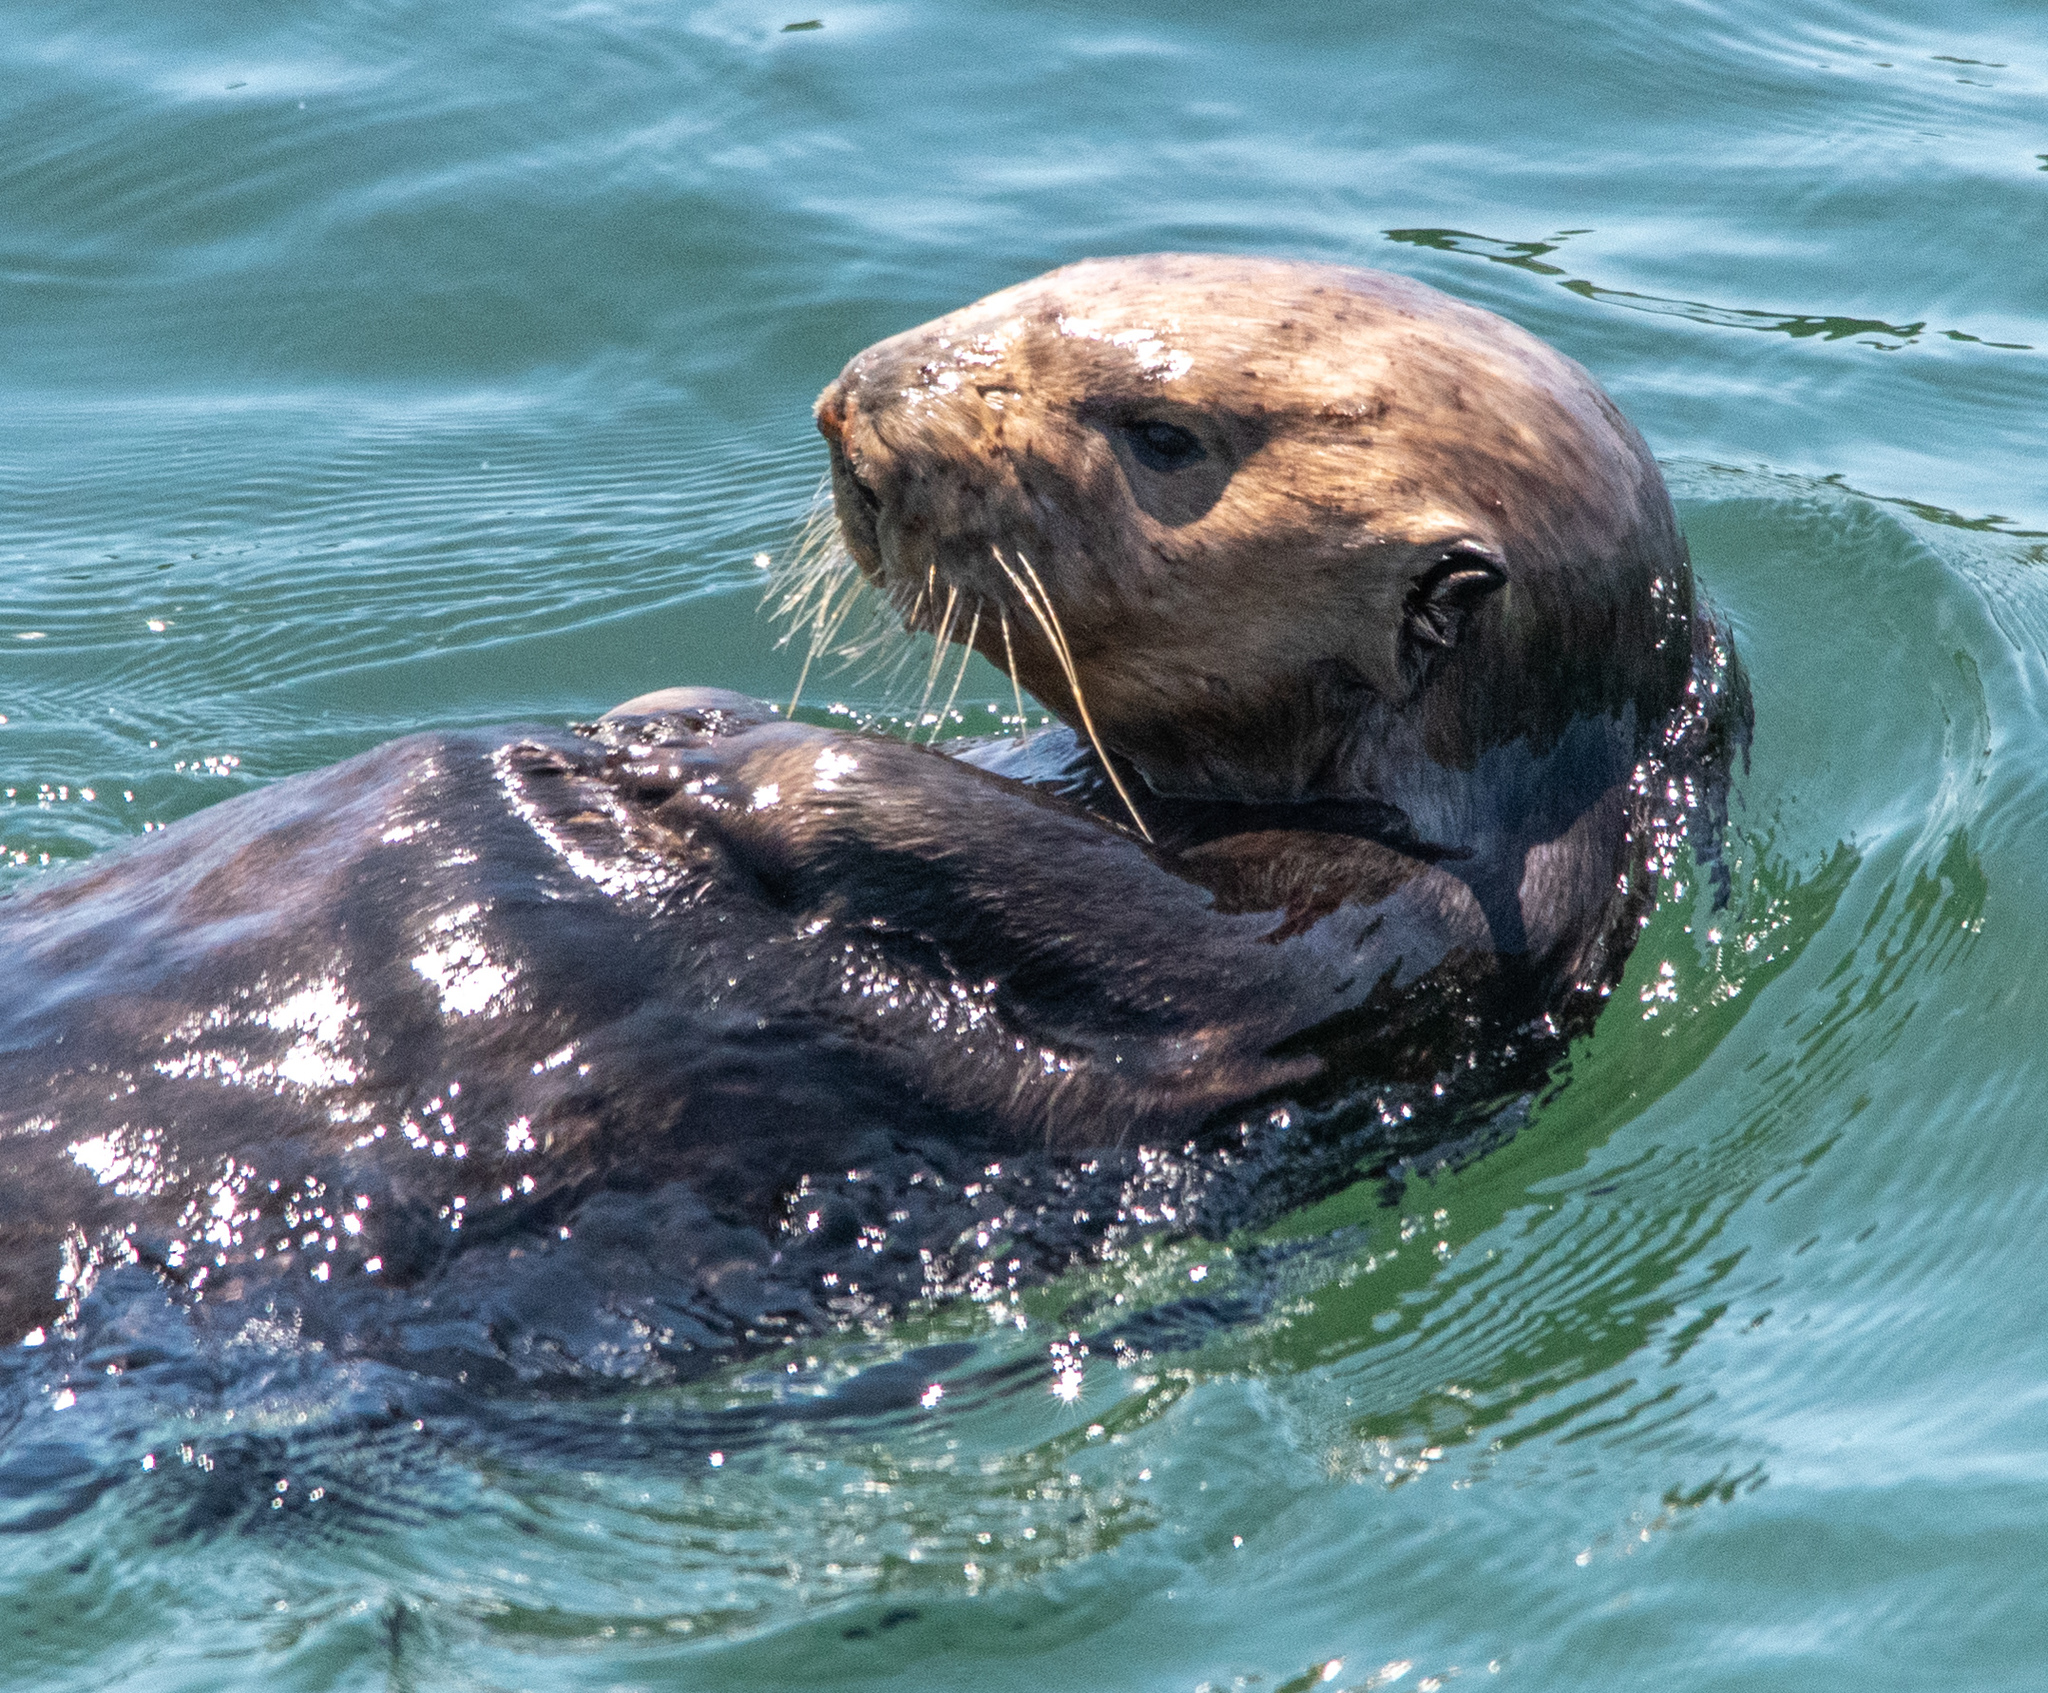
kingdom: Animalia
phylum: Chordata
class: Mammalia
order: Carnivora
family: Mustelidae
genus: Enhydra
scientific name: Enhydra lutris
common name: Sea otter
